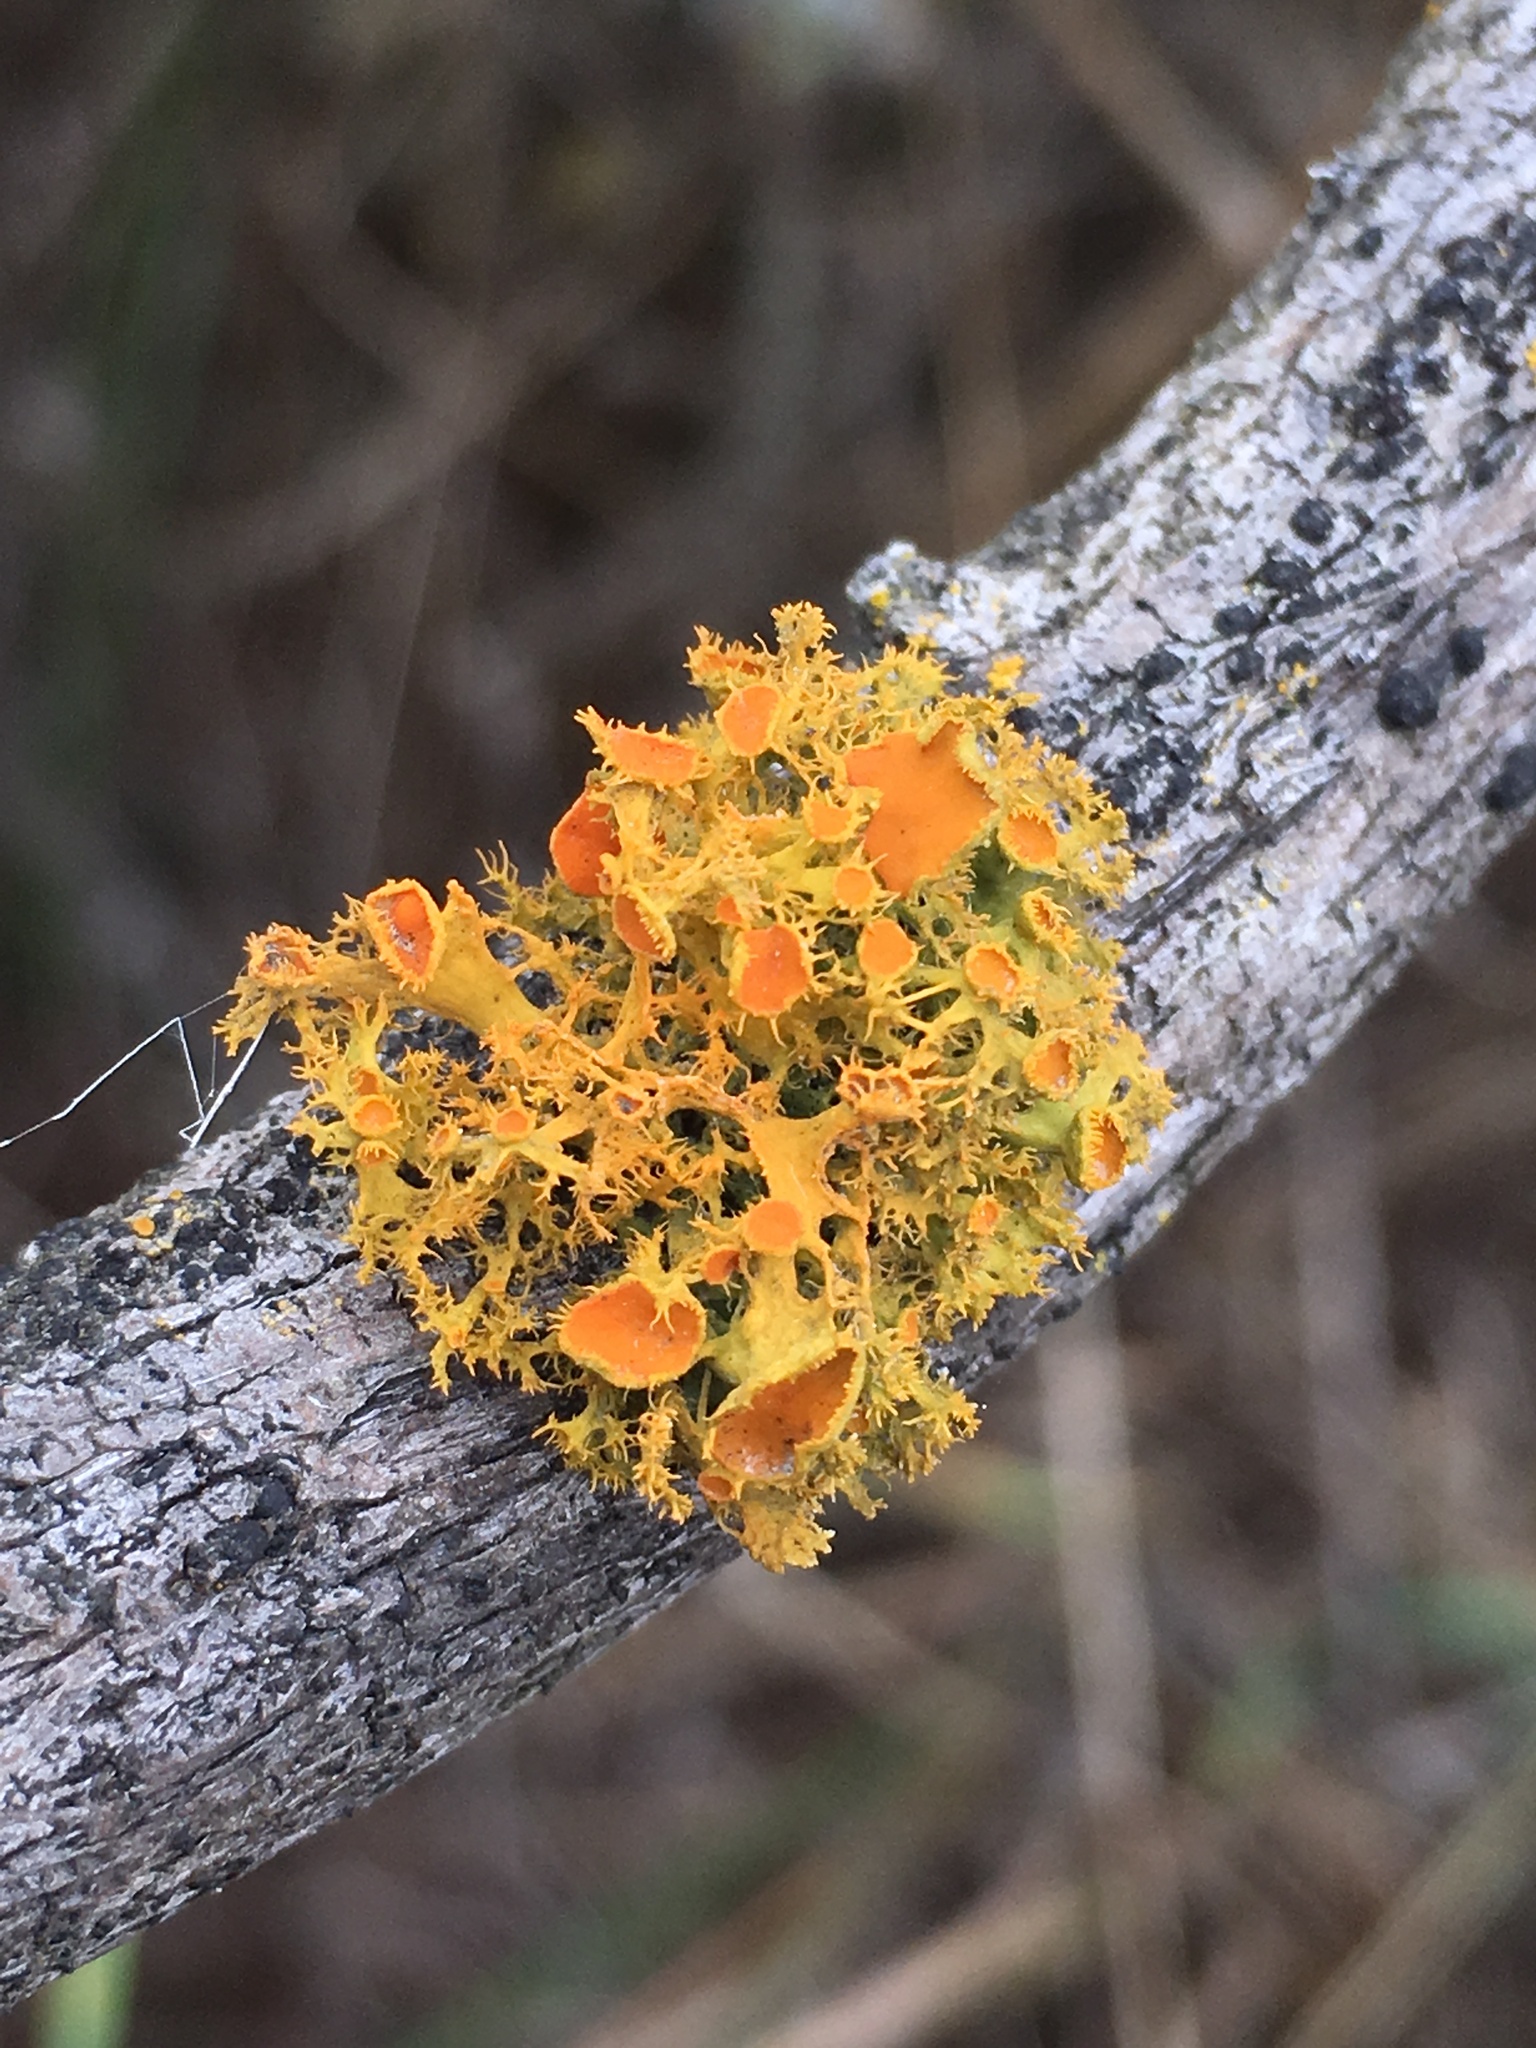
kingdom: Fungi
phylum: Ascomycota
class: Lecanoromycetes
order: Teloschistales
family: Teloschistaceae
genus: Niorma
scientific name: Niorma chrysophthalma
